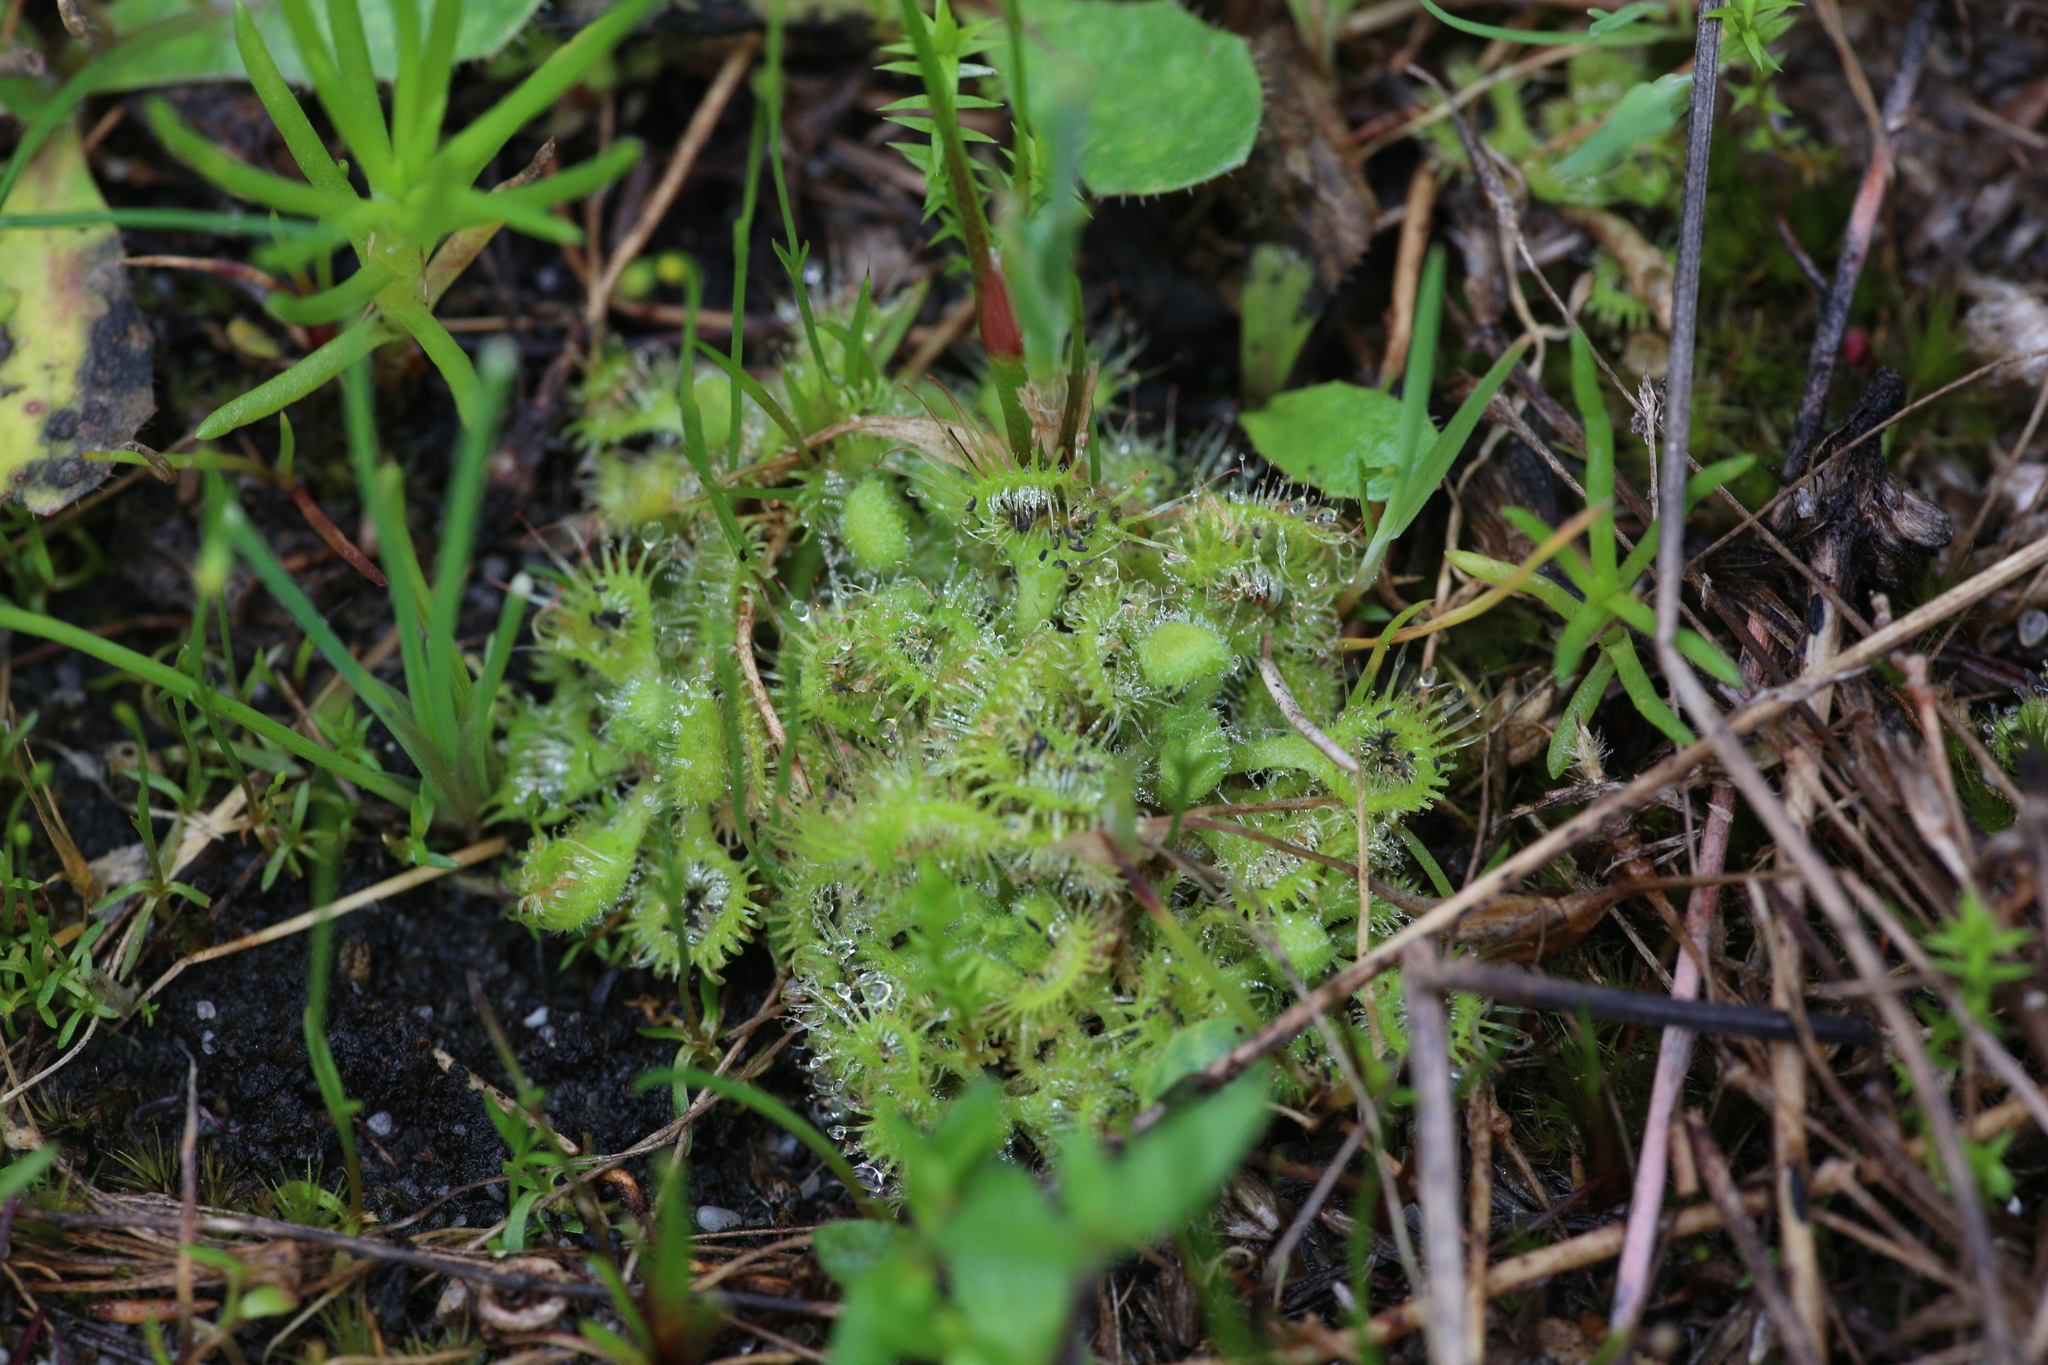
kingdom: Plantae
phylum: Tracheophyta
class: Magnoliopsida
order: Caryophyllales
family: Droseraceae
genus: Drosera
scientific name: Drosera glanduligera
